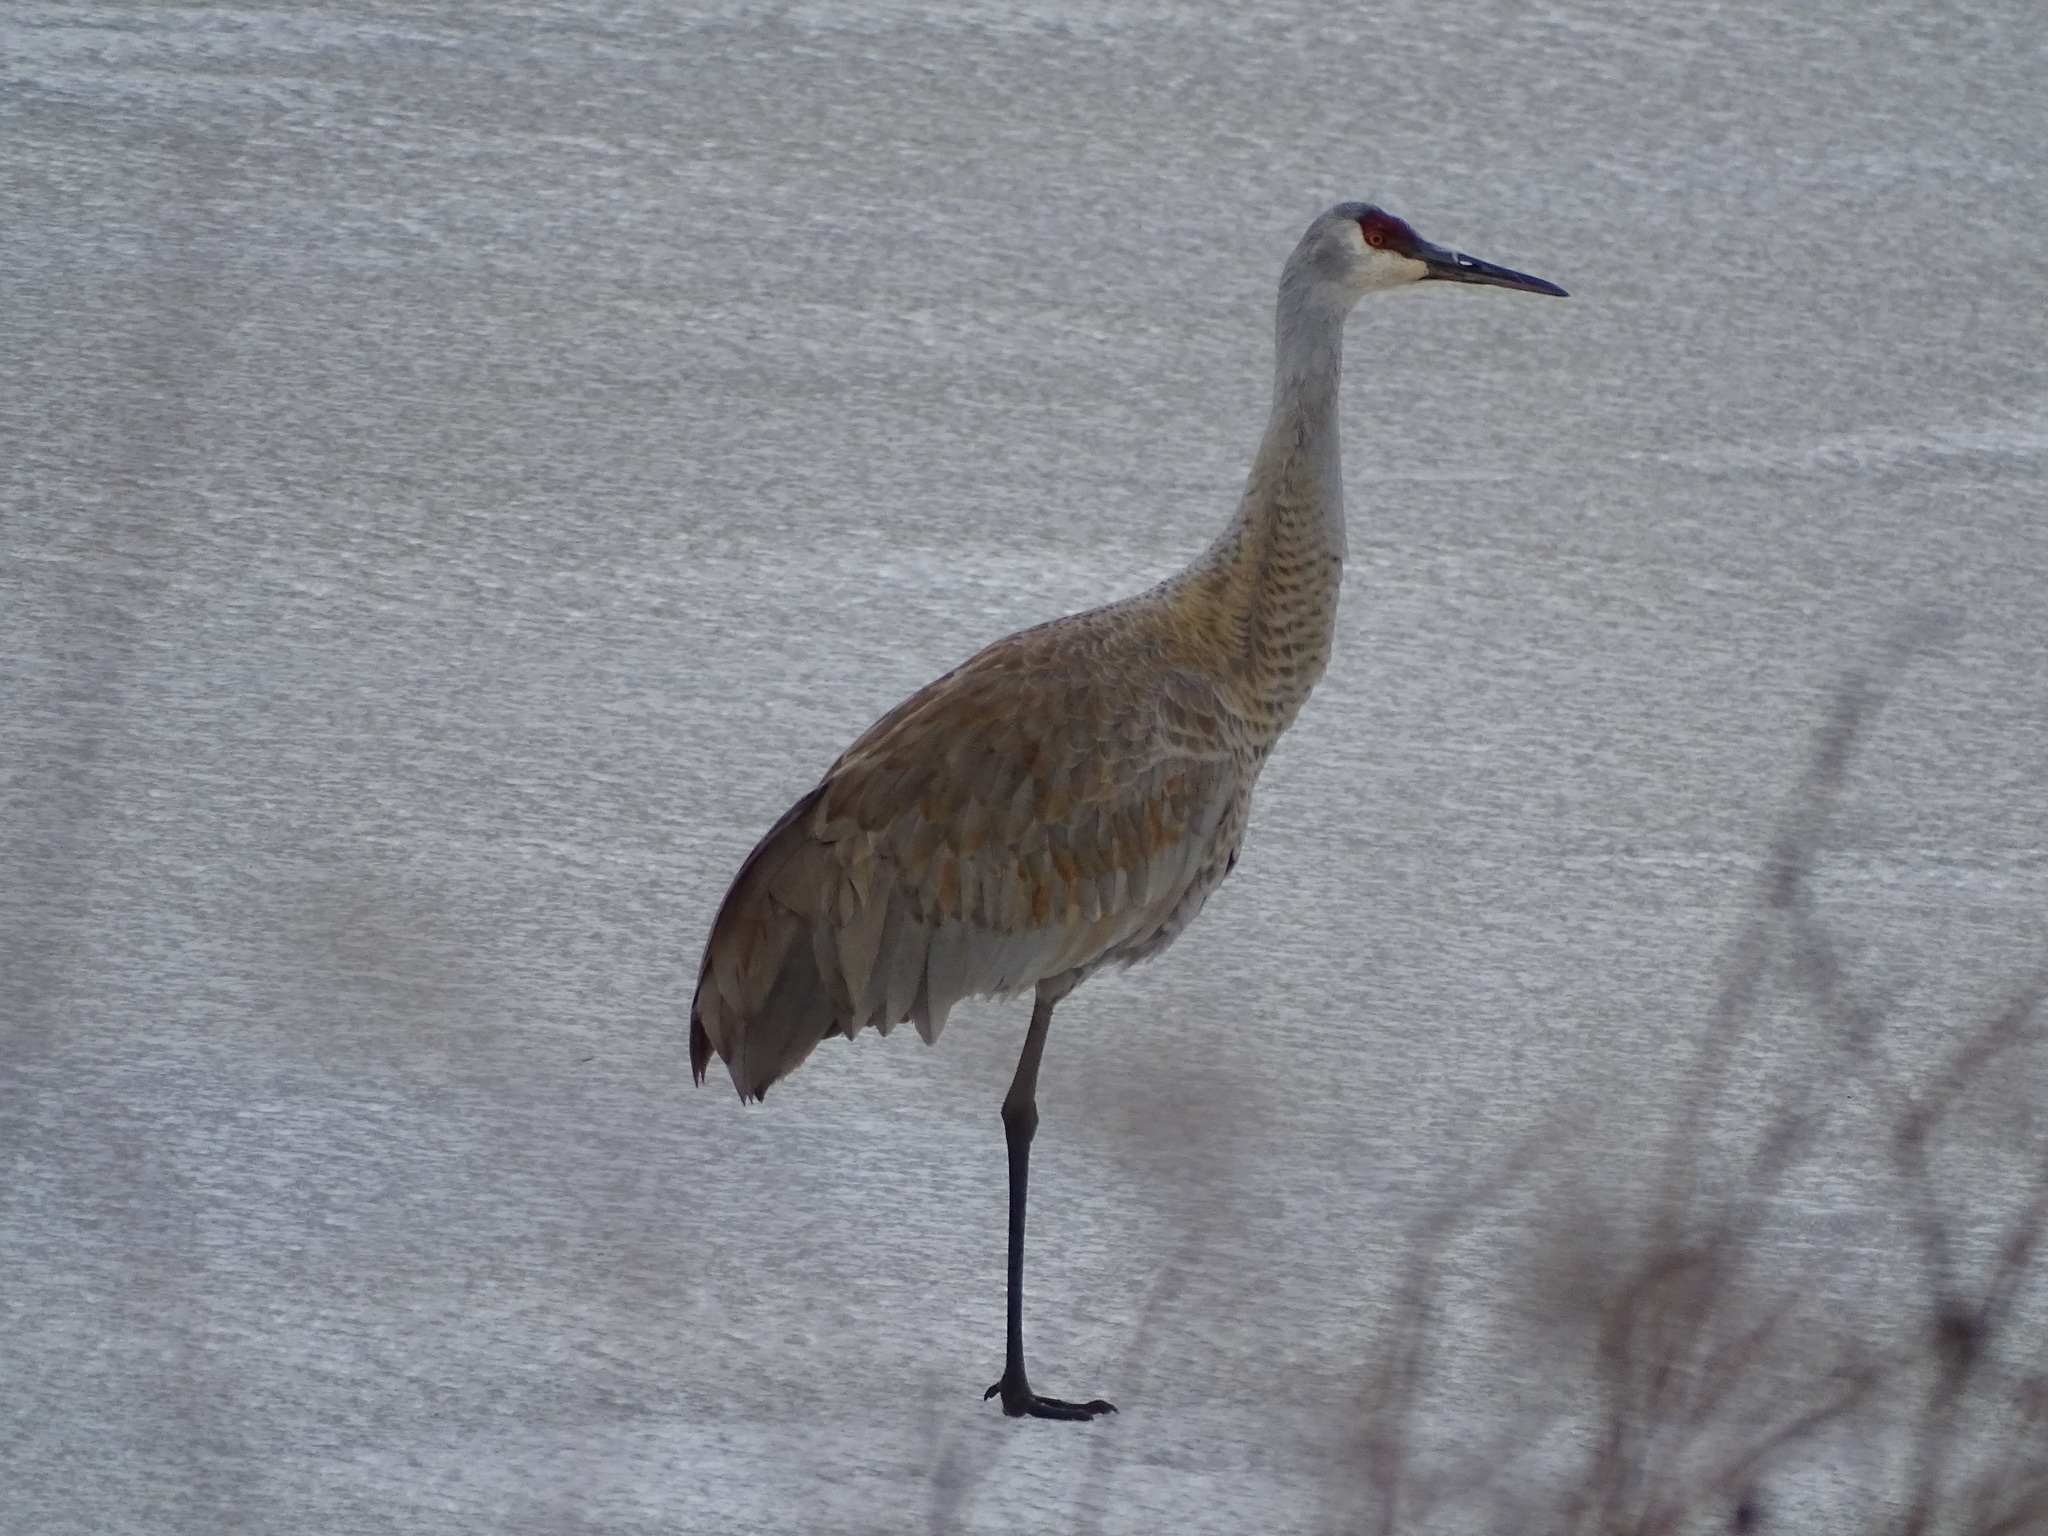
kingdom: Animalia
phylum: Chordata
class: Aves
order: Gruiformes
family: Gruidae
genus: Grus
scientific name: Grus canadensis
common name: Sandhill crane
